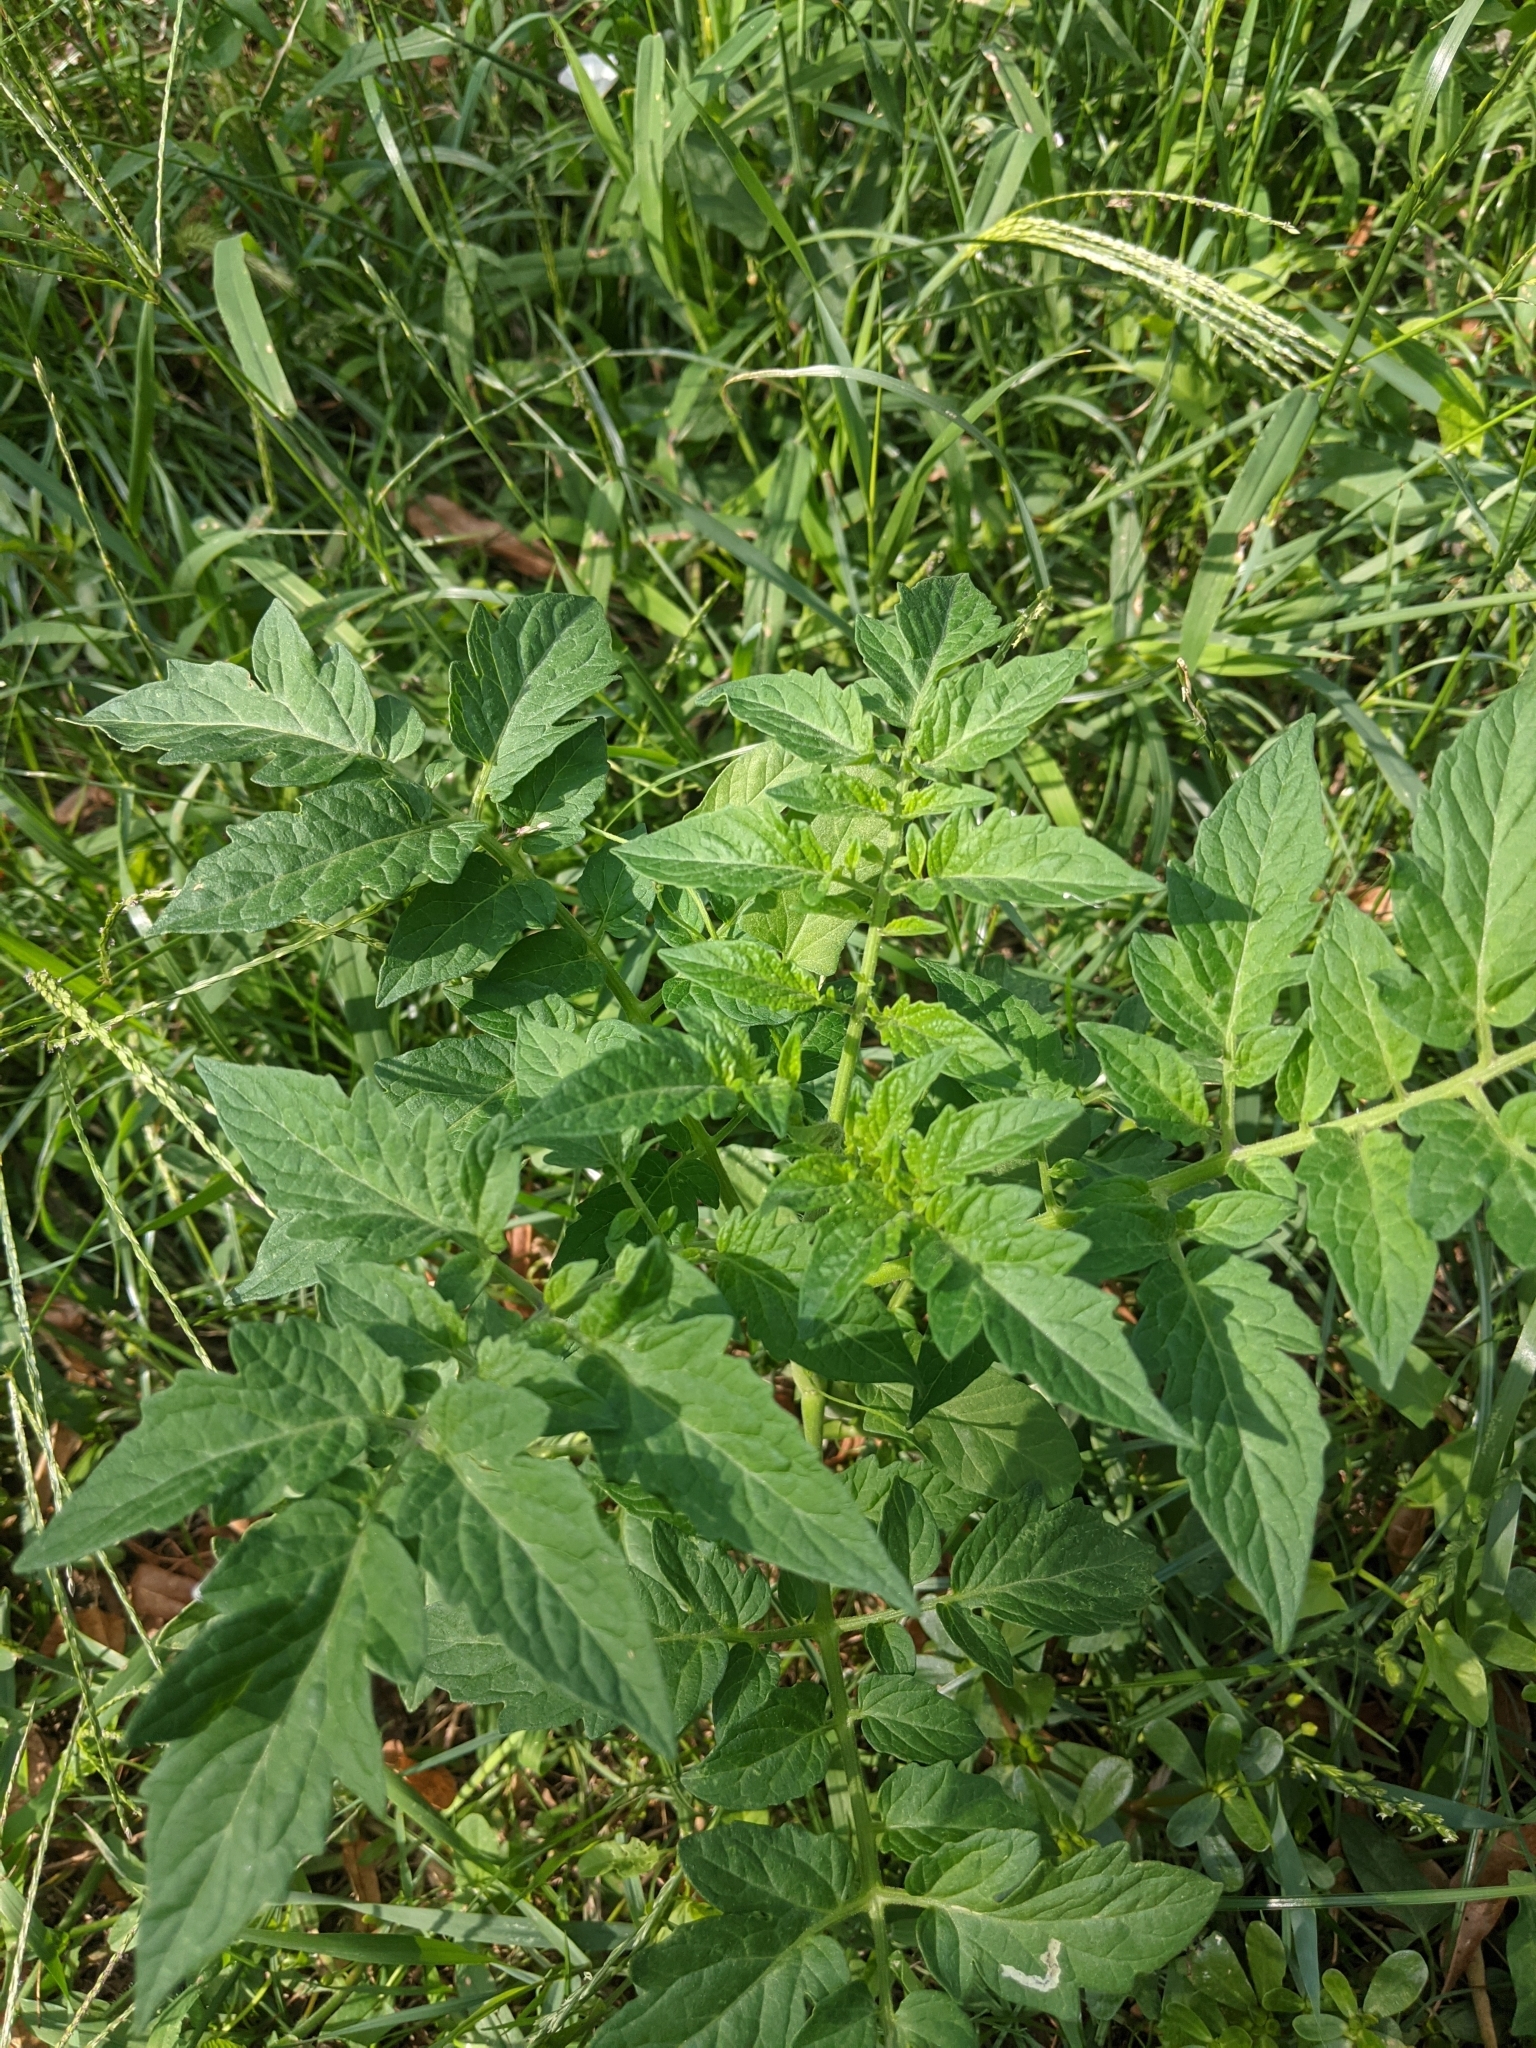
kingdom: Plantae
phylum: Tracheophyta
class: Magnoliopsida
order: Solanales
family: Solanaceae
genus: Solanum
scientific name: Solanum lycopersicum
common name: Garden tomato
